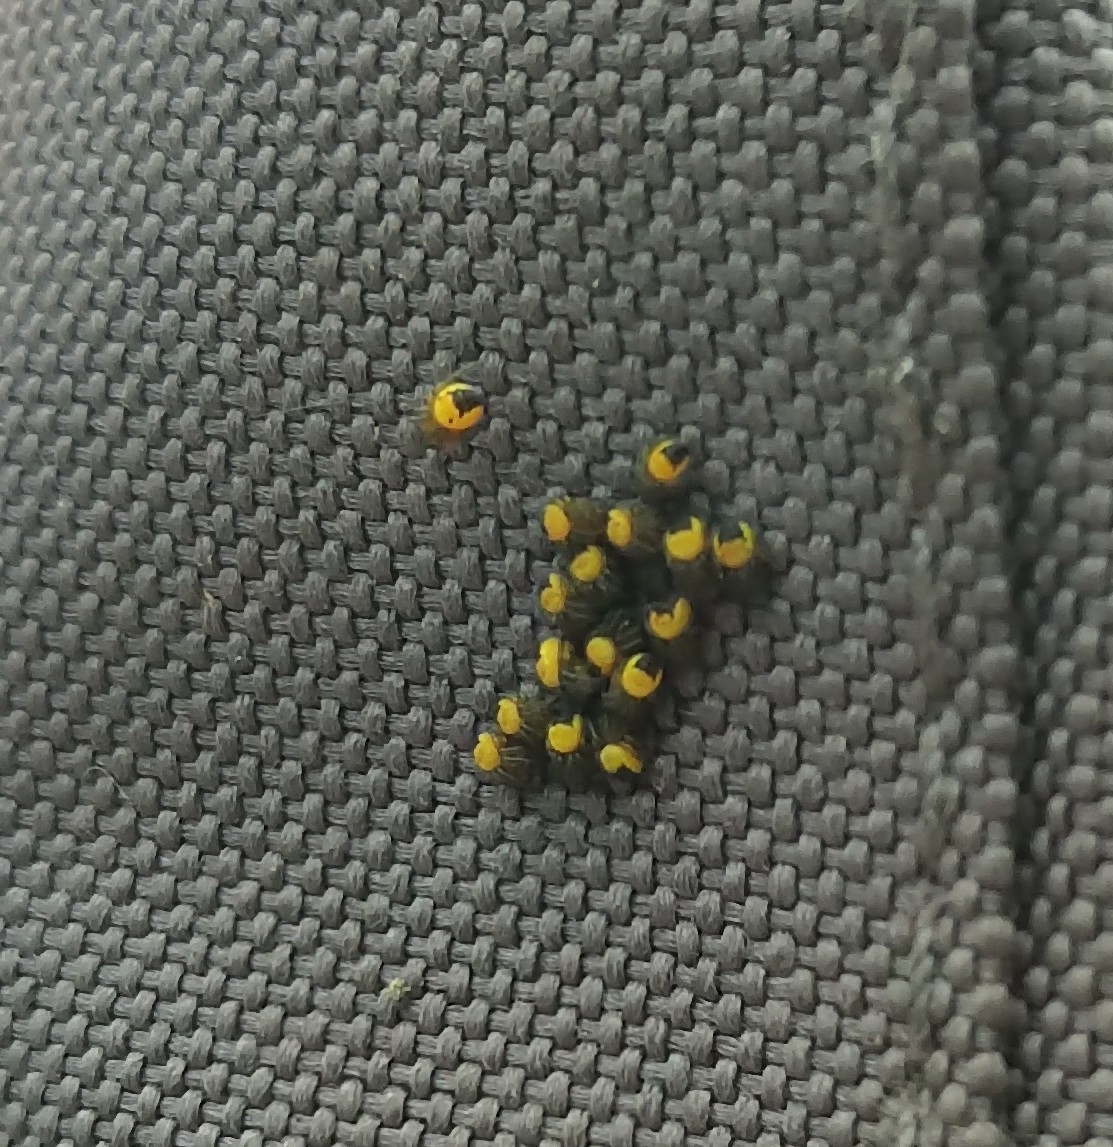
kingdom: Animalia
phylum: Arthropoda
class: Arachnida
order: Araneae
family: Araneidae
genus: Araneus
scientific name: Araneus diadematus
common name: Cross orbweaver
